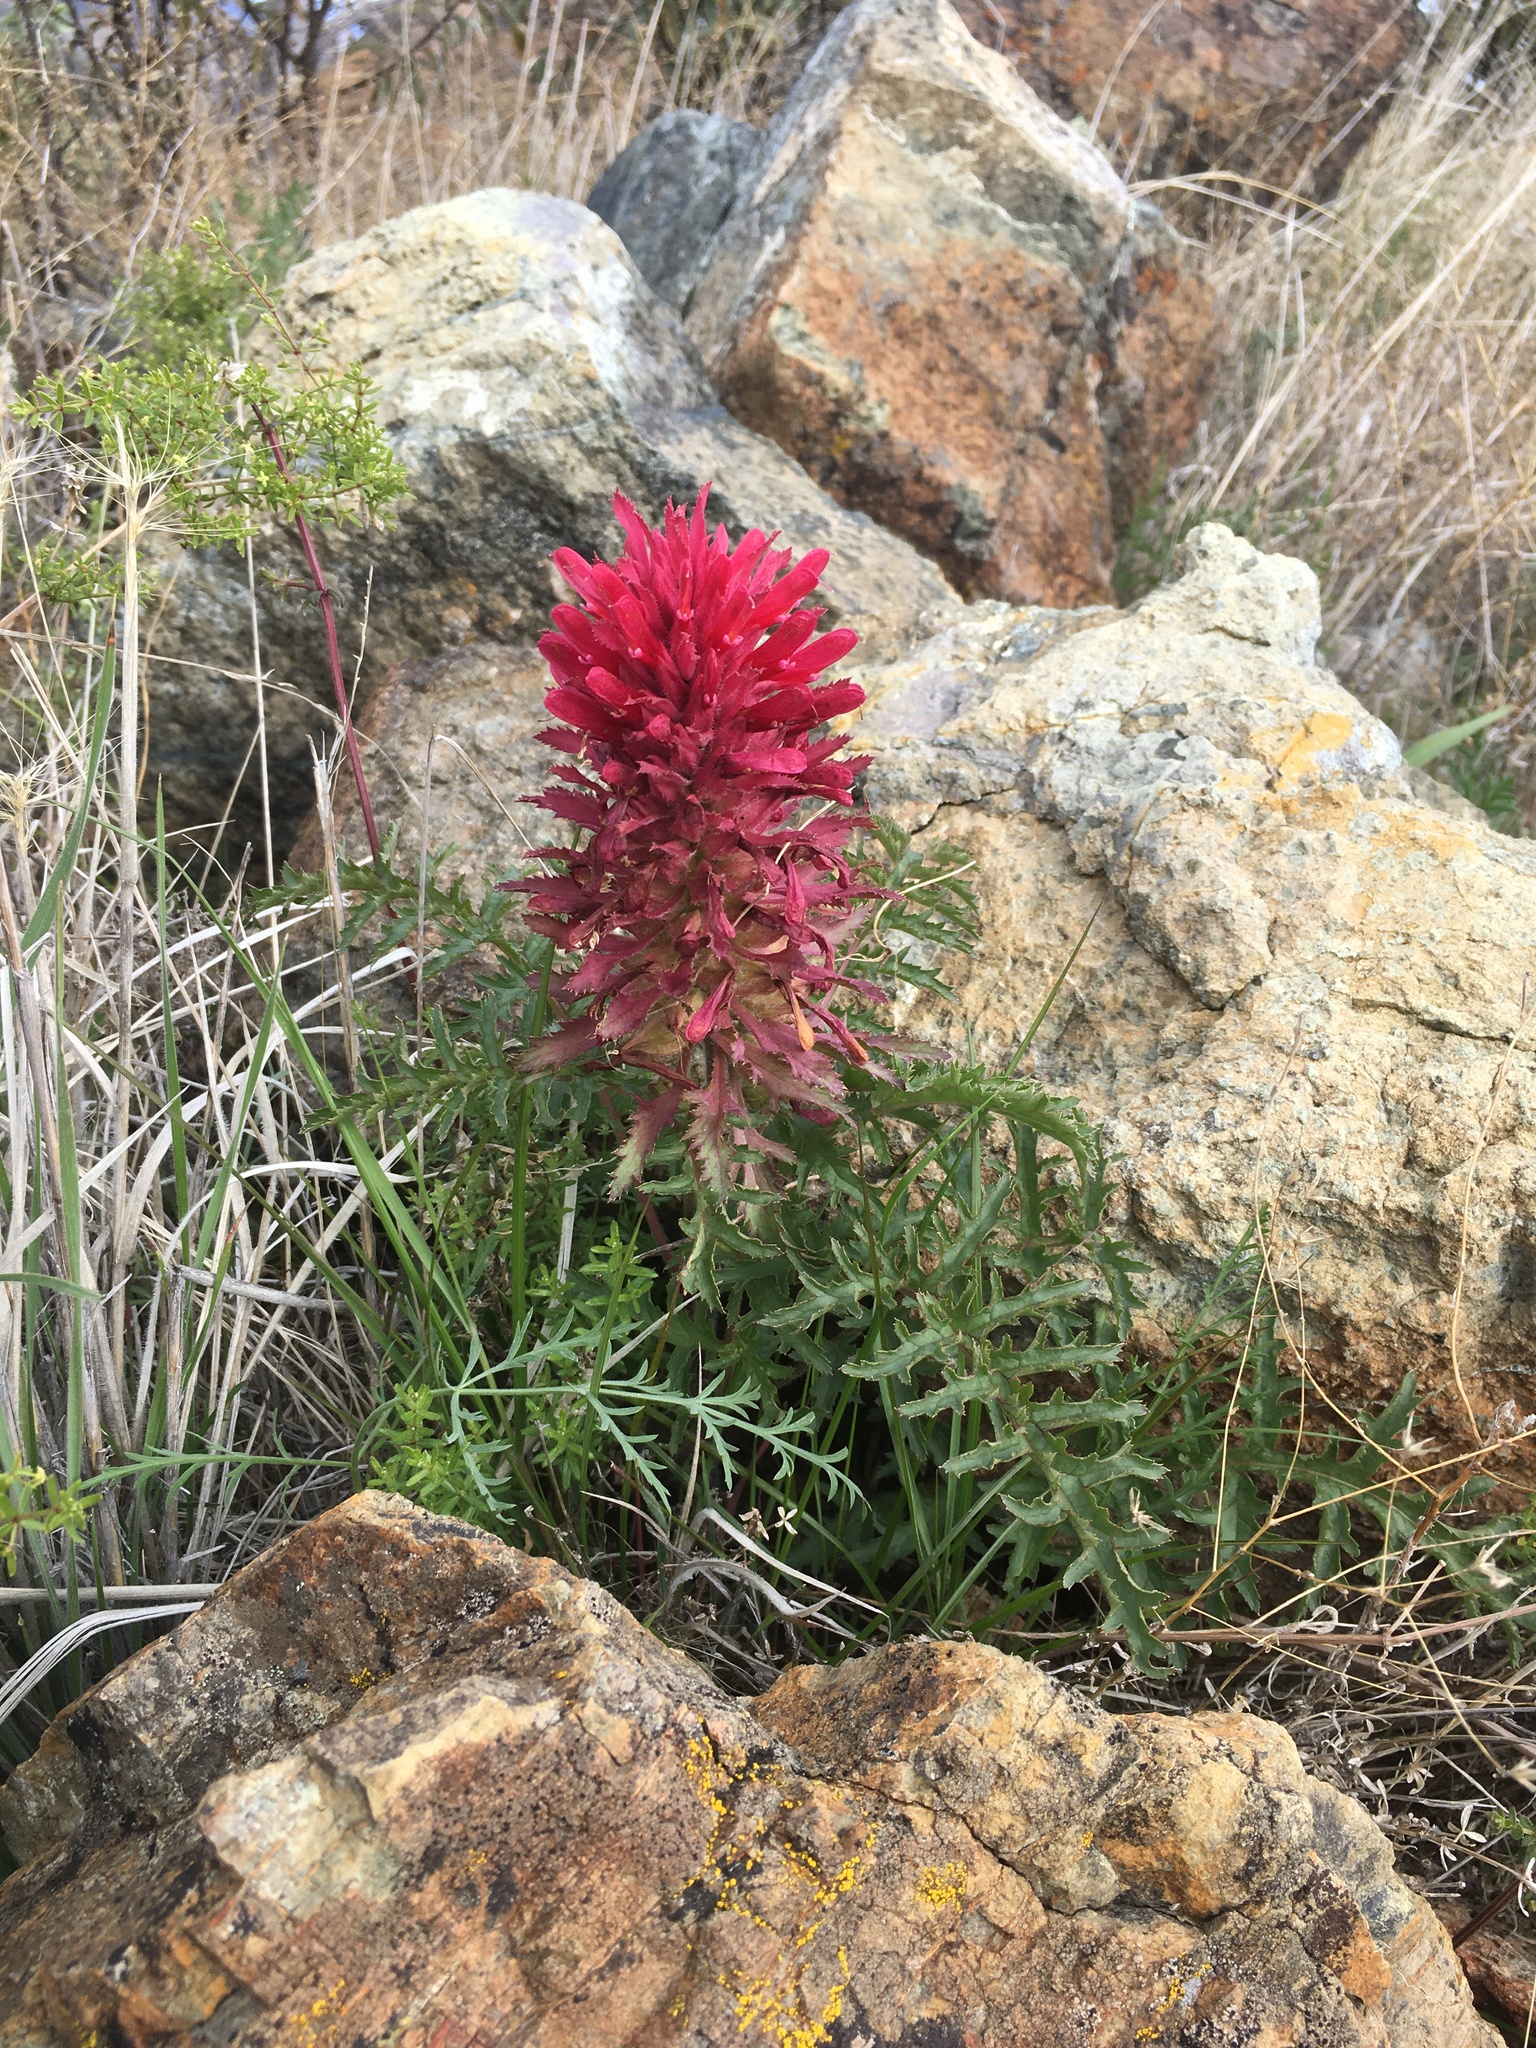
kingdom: Plantae
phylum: Tracheophyta
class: Magnoliopsida
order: Lamiales
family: Orobanchaceae
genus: Pedicularis
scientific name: Pedicularis densiflora
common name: Indian warrior
